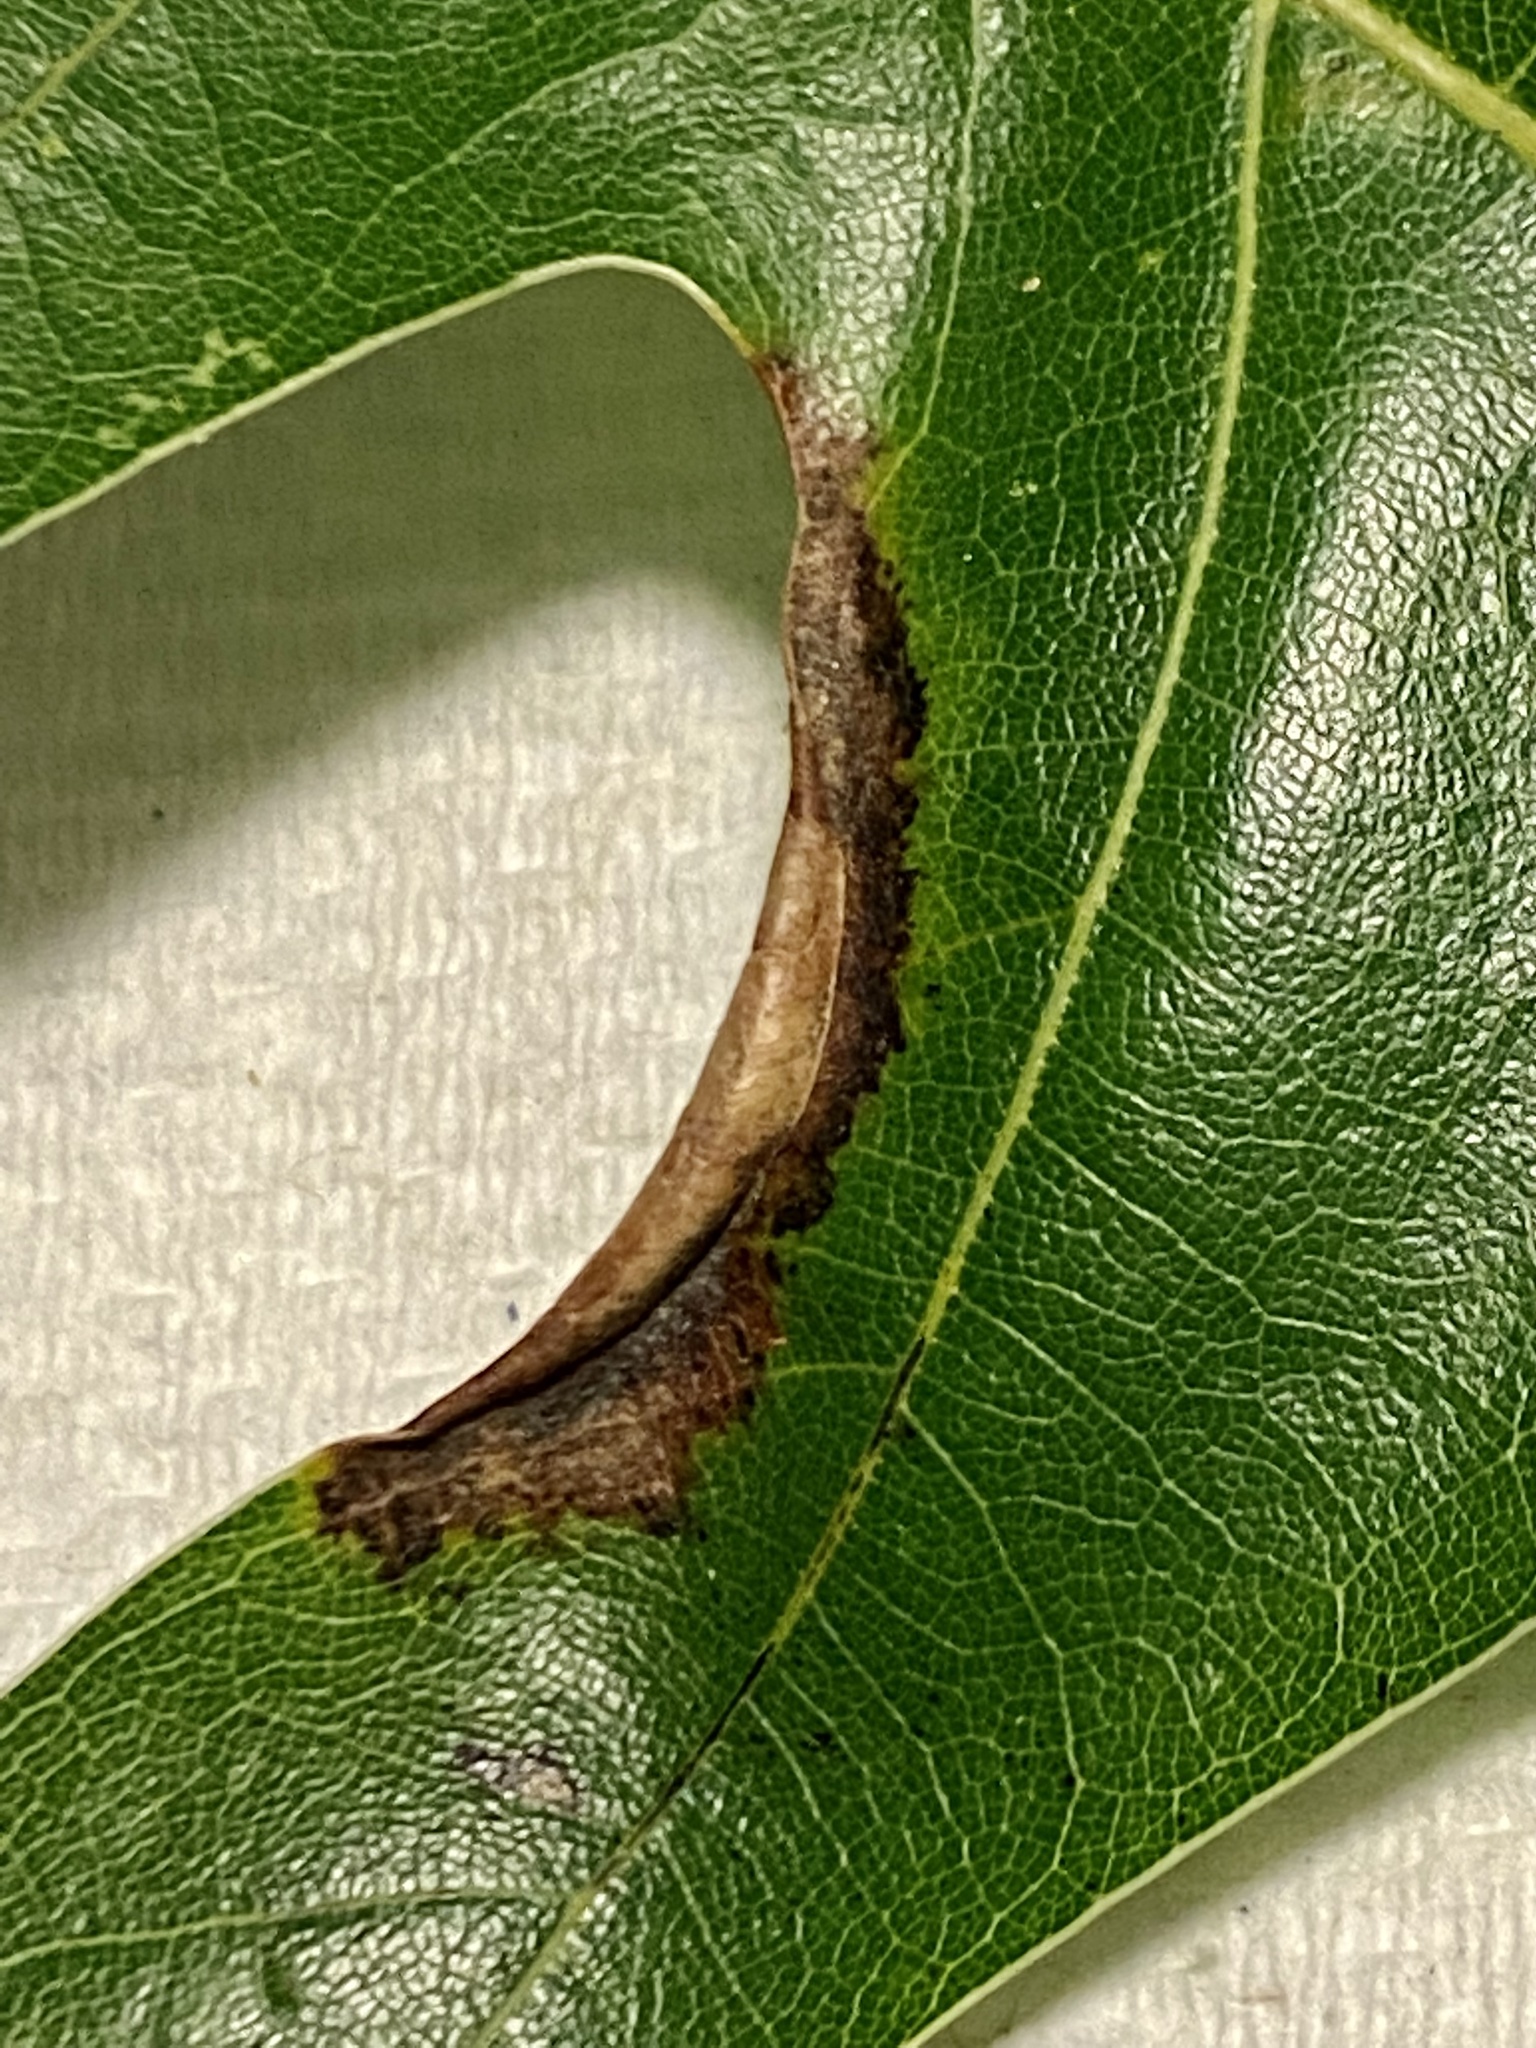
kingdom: Animalia
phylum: Arthropoda
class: Insecta
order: Diptera
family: Cecidomyiidae
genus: Macrodiplosis
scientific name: Macrodiplosis erubescens
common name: Marginal leaf fold gall midge
